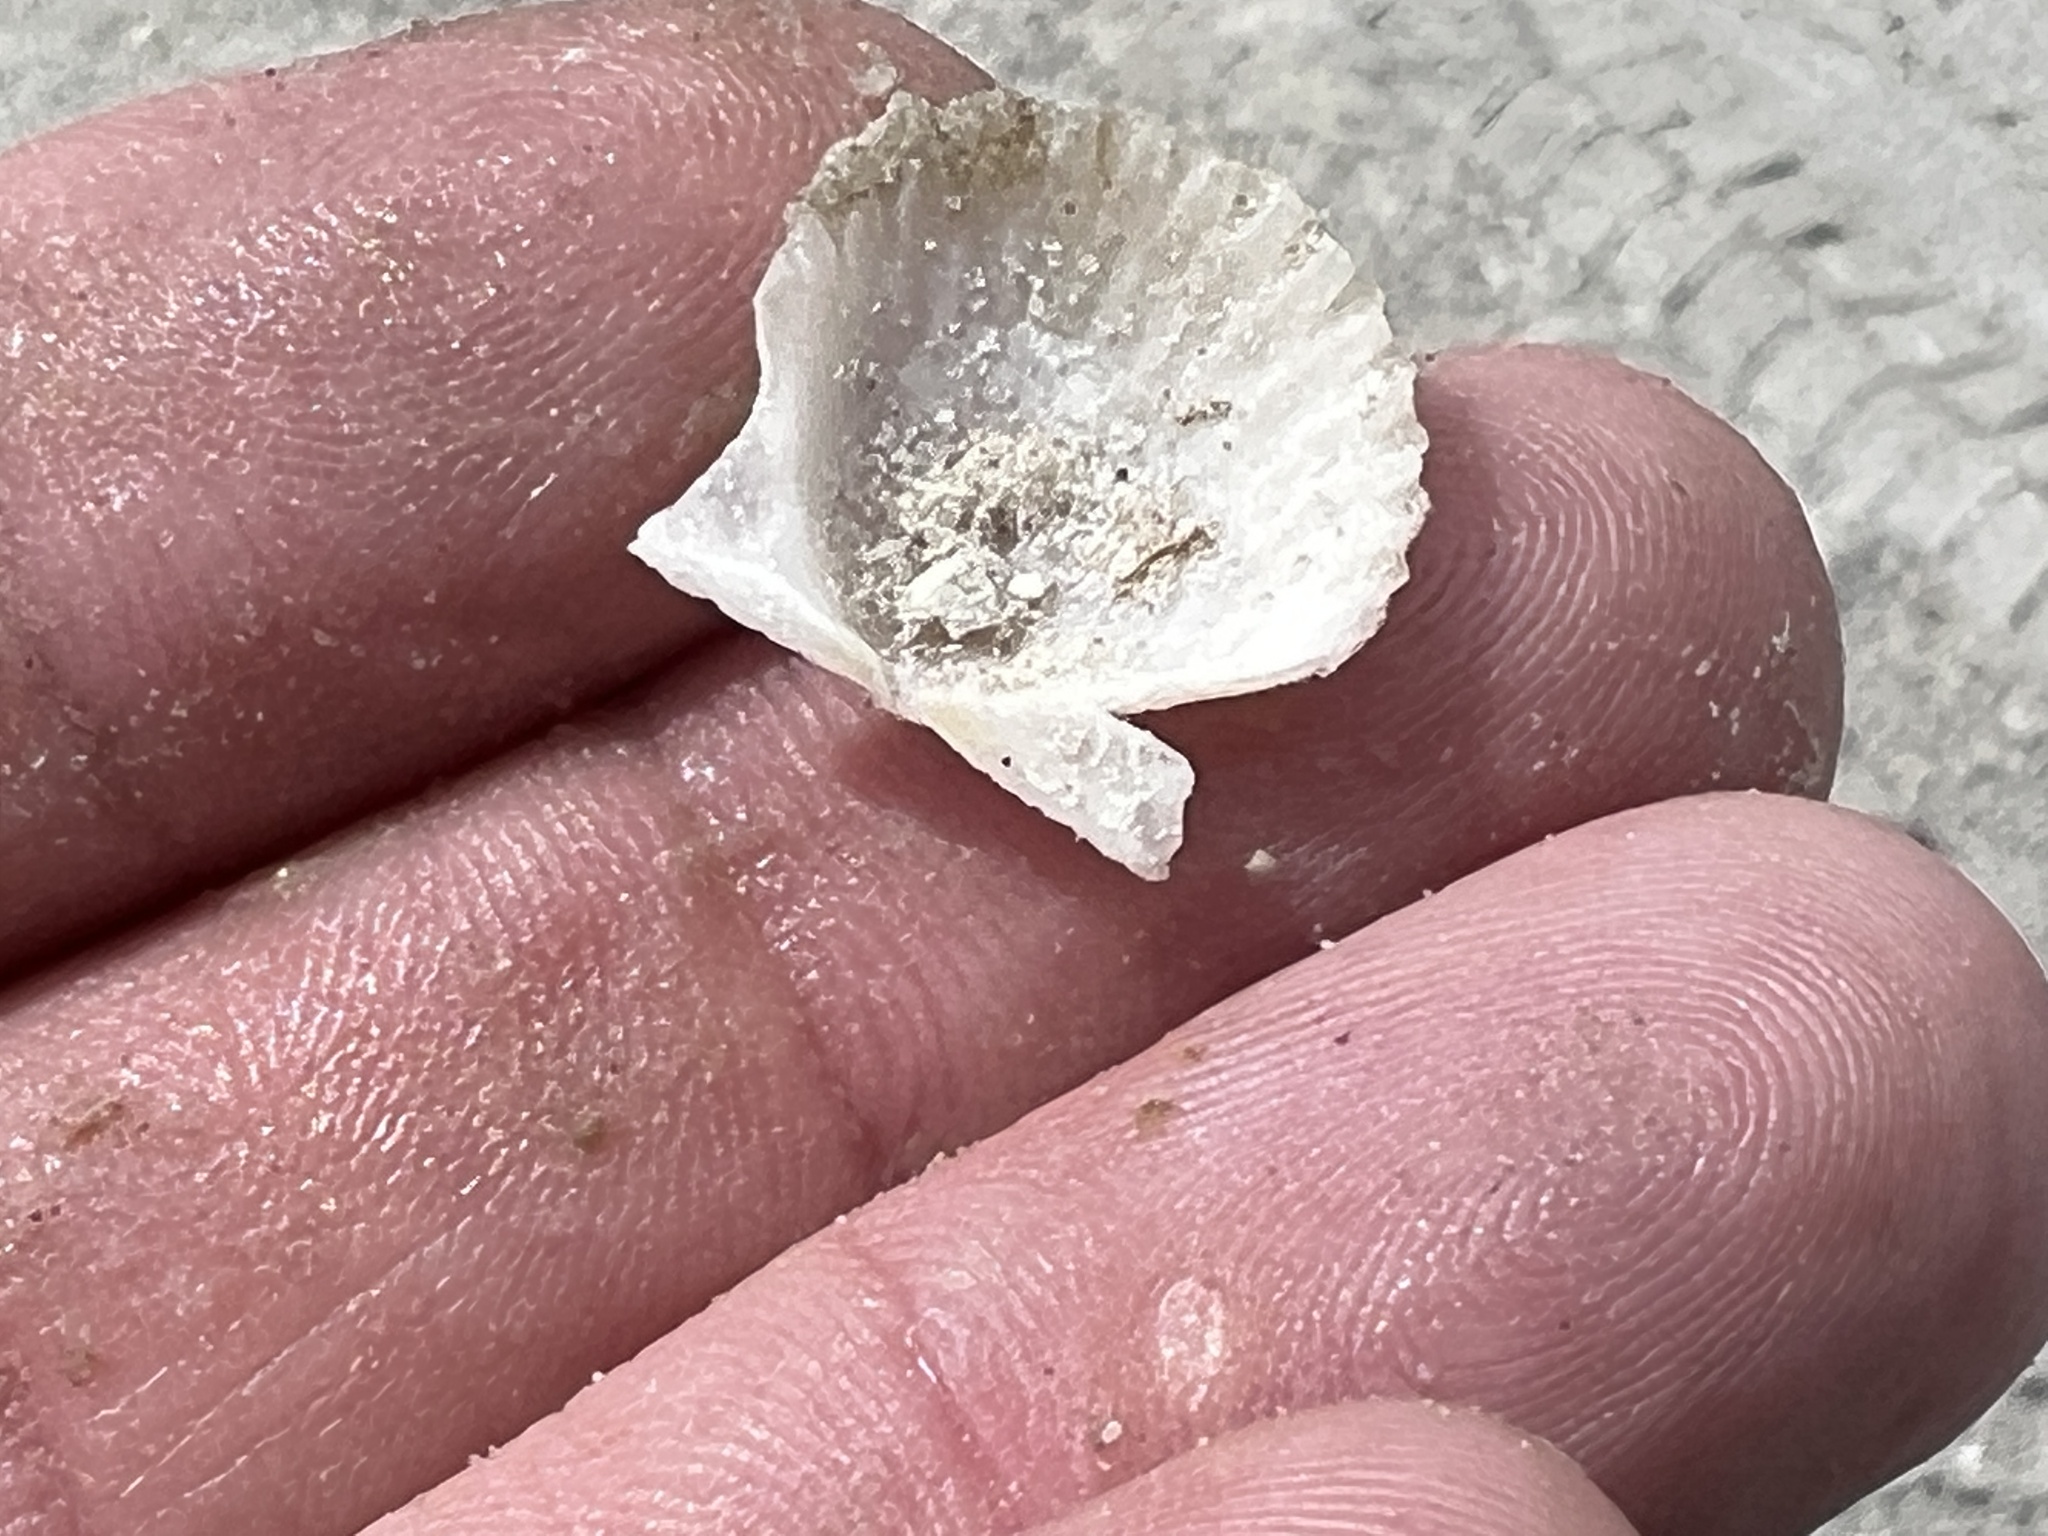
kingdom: Animalia
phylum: Mollusca
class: Bivalvia
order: Pectinida
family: Pectinidae
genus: Argopecten
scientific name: Argopecten irradians
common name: Atlantic bay scallop
